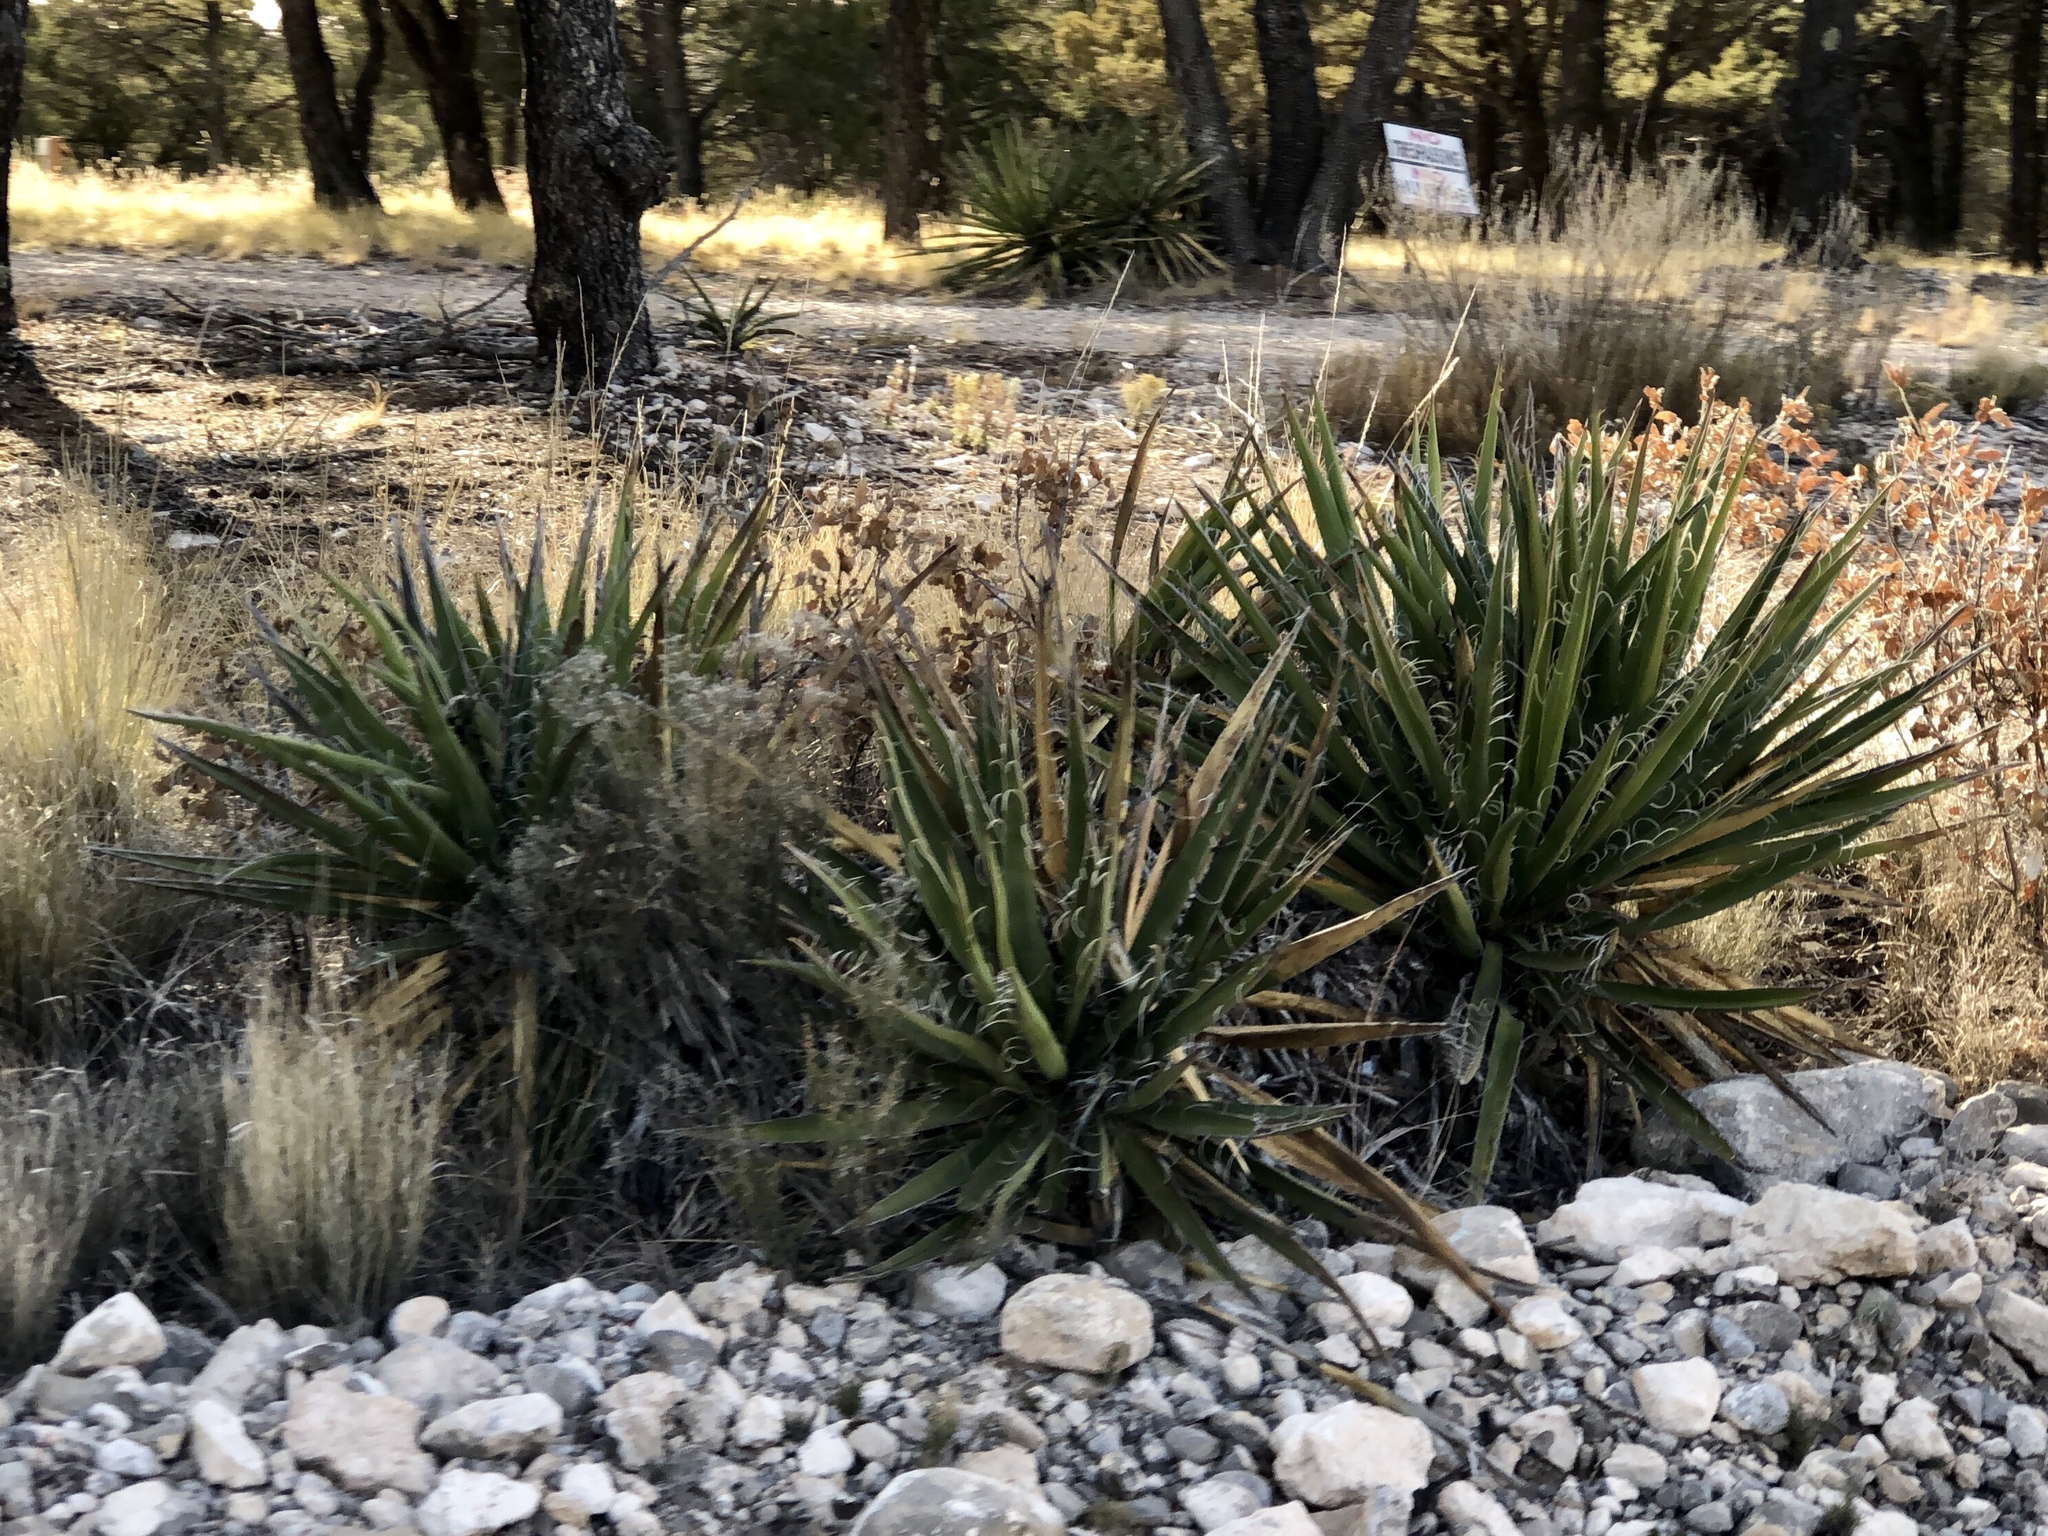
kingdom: Plantae
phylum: Tracheophyta
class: Liliopsida
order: Asparagales
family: Asparagaceae
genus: Yucca
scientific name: Yucca baccata
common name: Banana yucca
